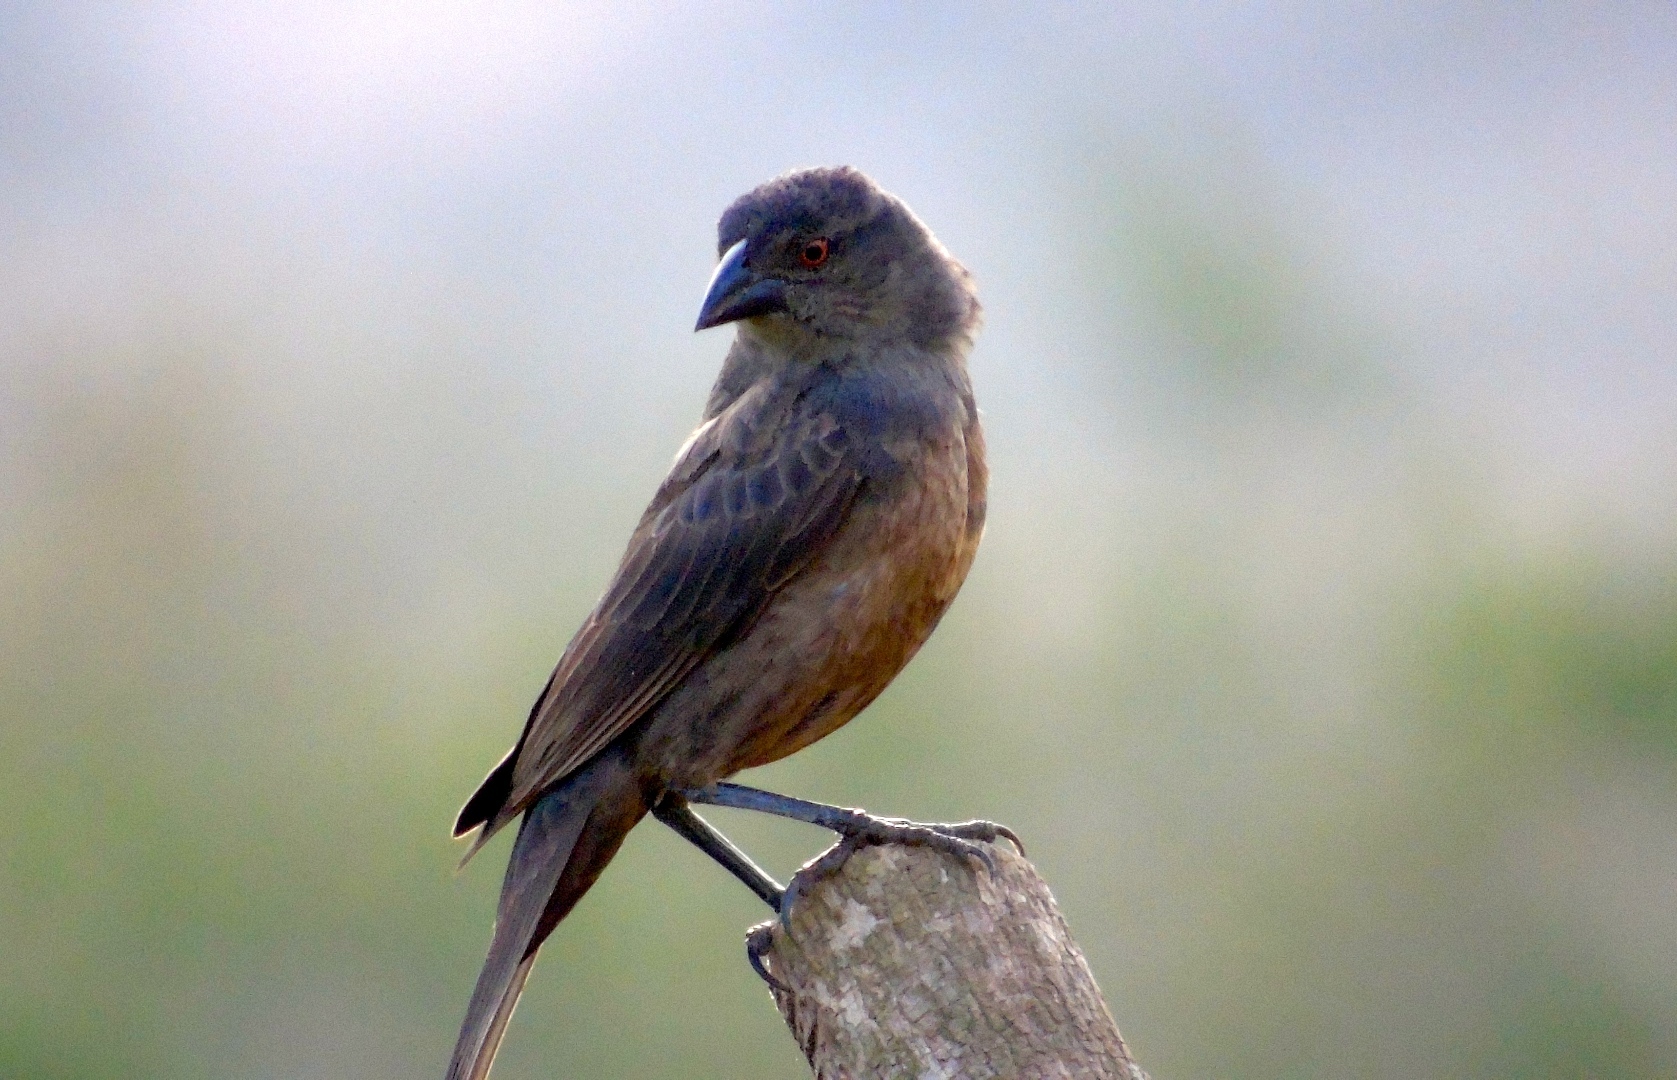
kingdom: Animalia
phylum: Chordata
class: Aves
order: Passeriformes
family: Icteridae
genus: Molothrus
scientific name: Molothrus aeneus
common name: Bronzed cowbird
